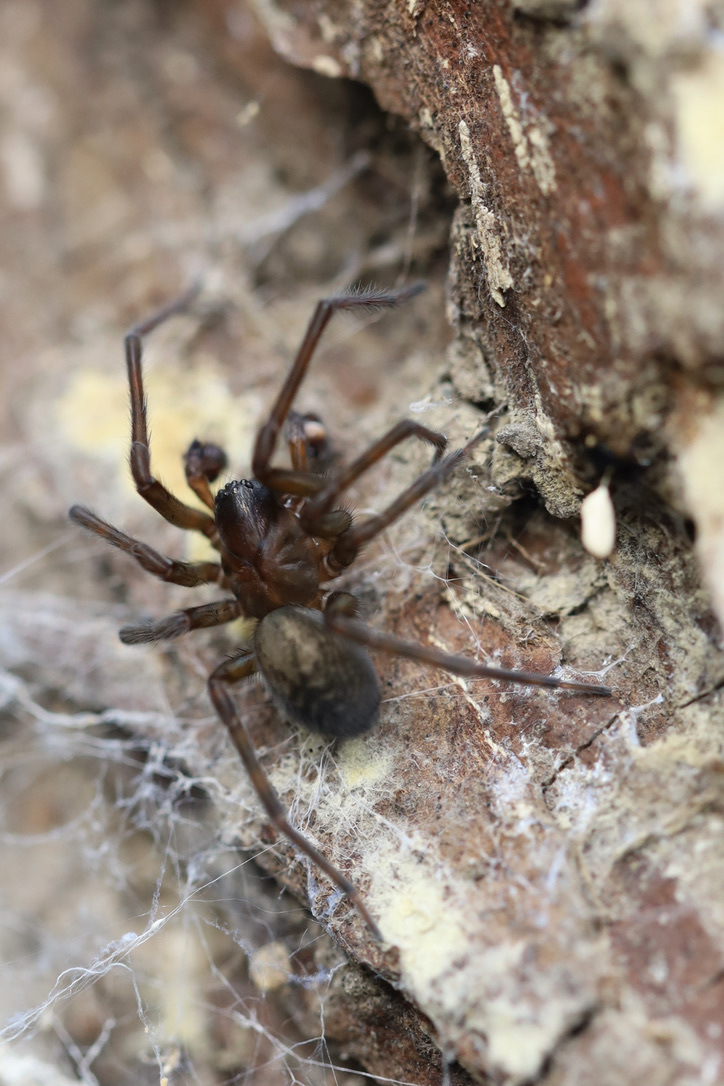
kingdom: Animalia
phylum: Arthropoda
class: Arachnida
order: Araneae
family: Amaurobiidae
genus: Amaurobius
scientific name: Amaurobius ferox
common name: Black laceweaver
